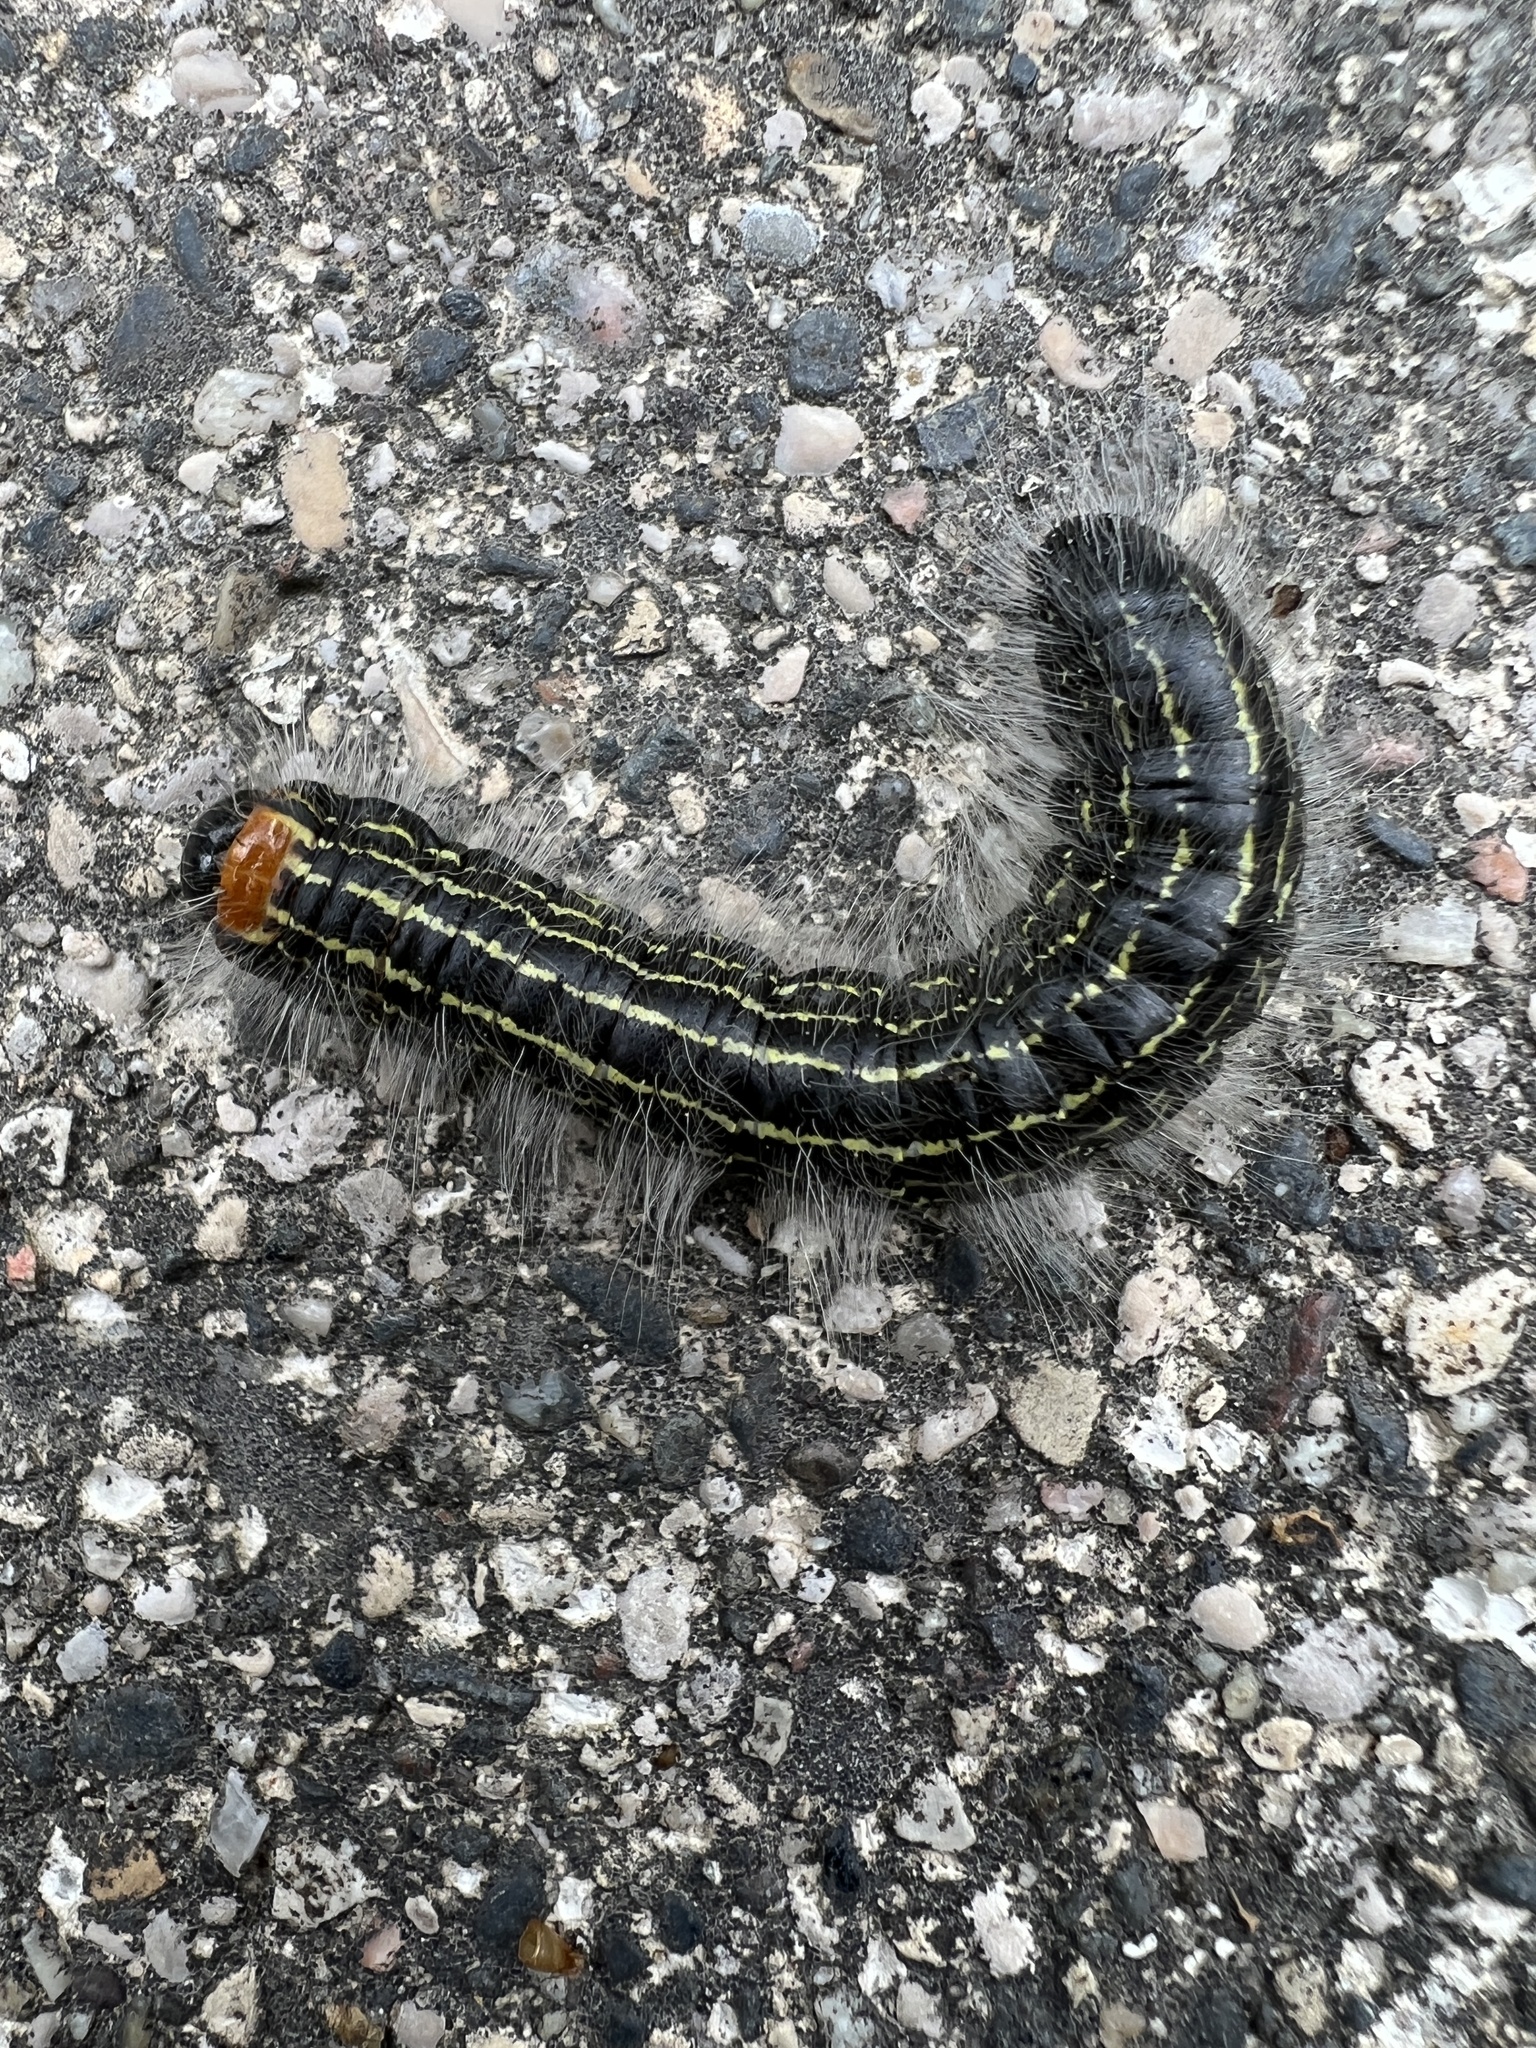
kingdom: Animalia
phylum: Arthropoda
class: Insecta
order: Lepidoptera
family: Notodontidae
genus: Datana
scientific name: Datana ministra
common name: Yellow-necked caterpillar moth
